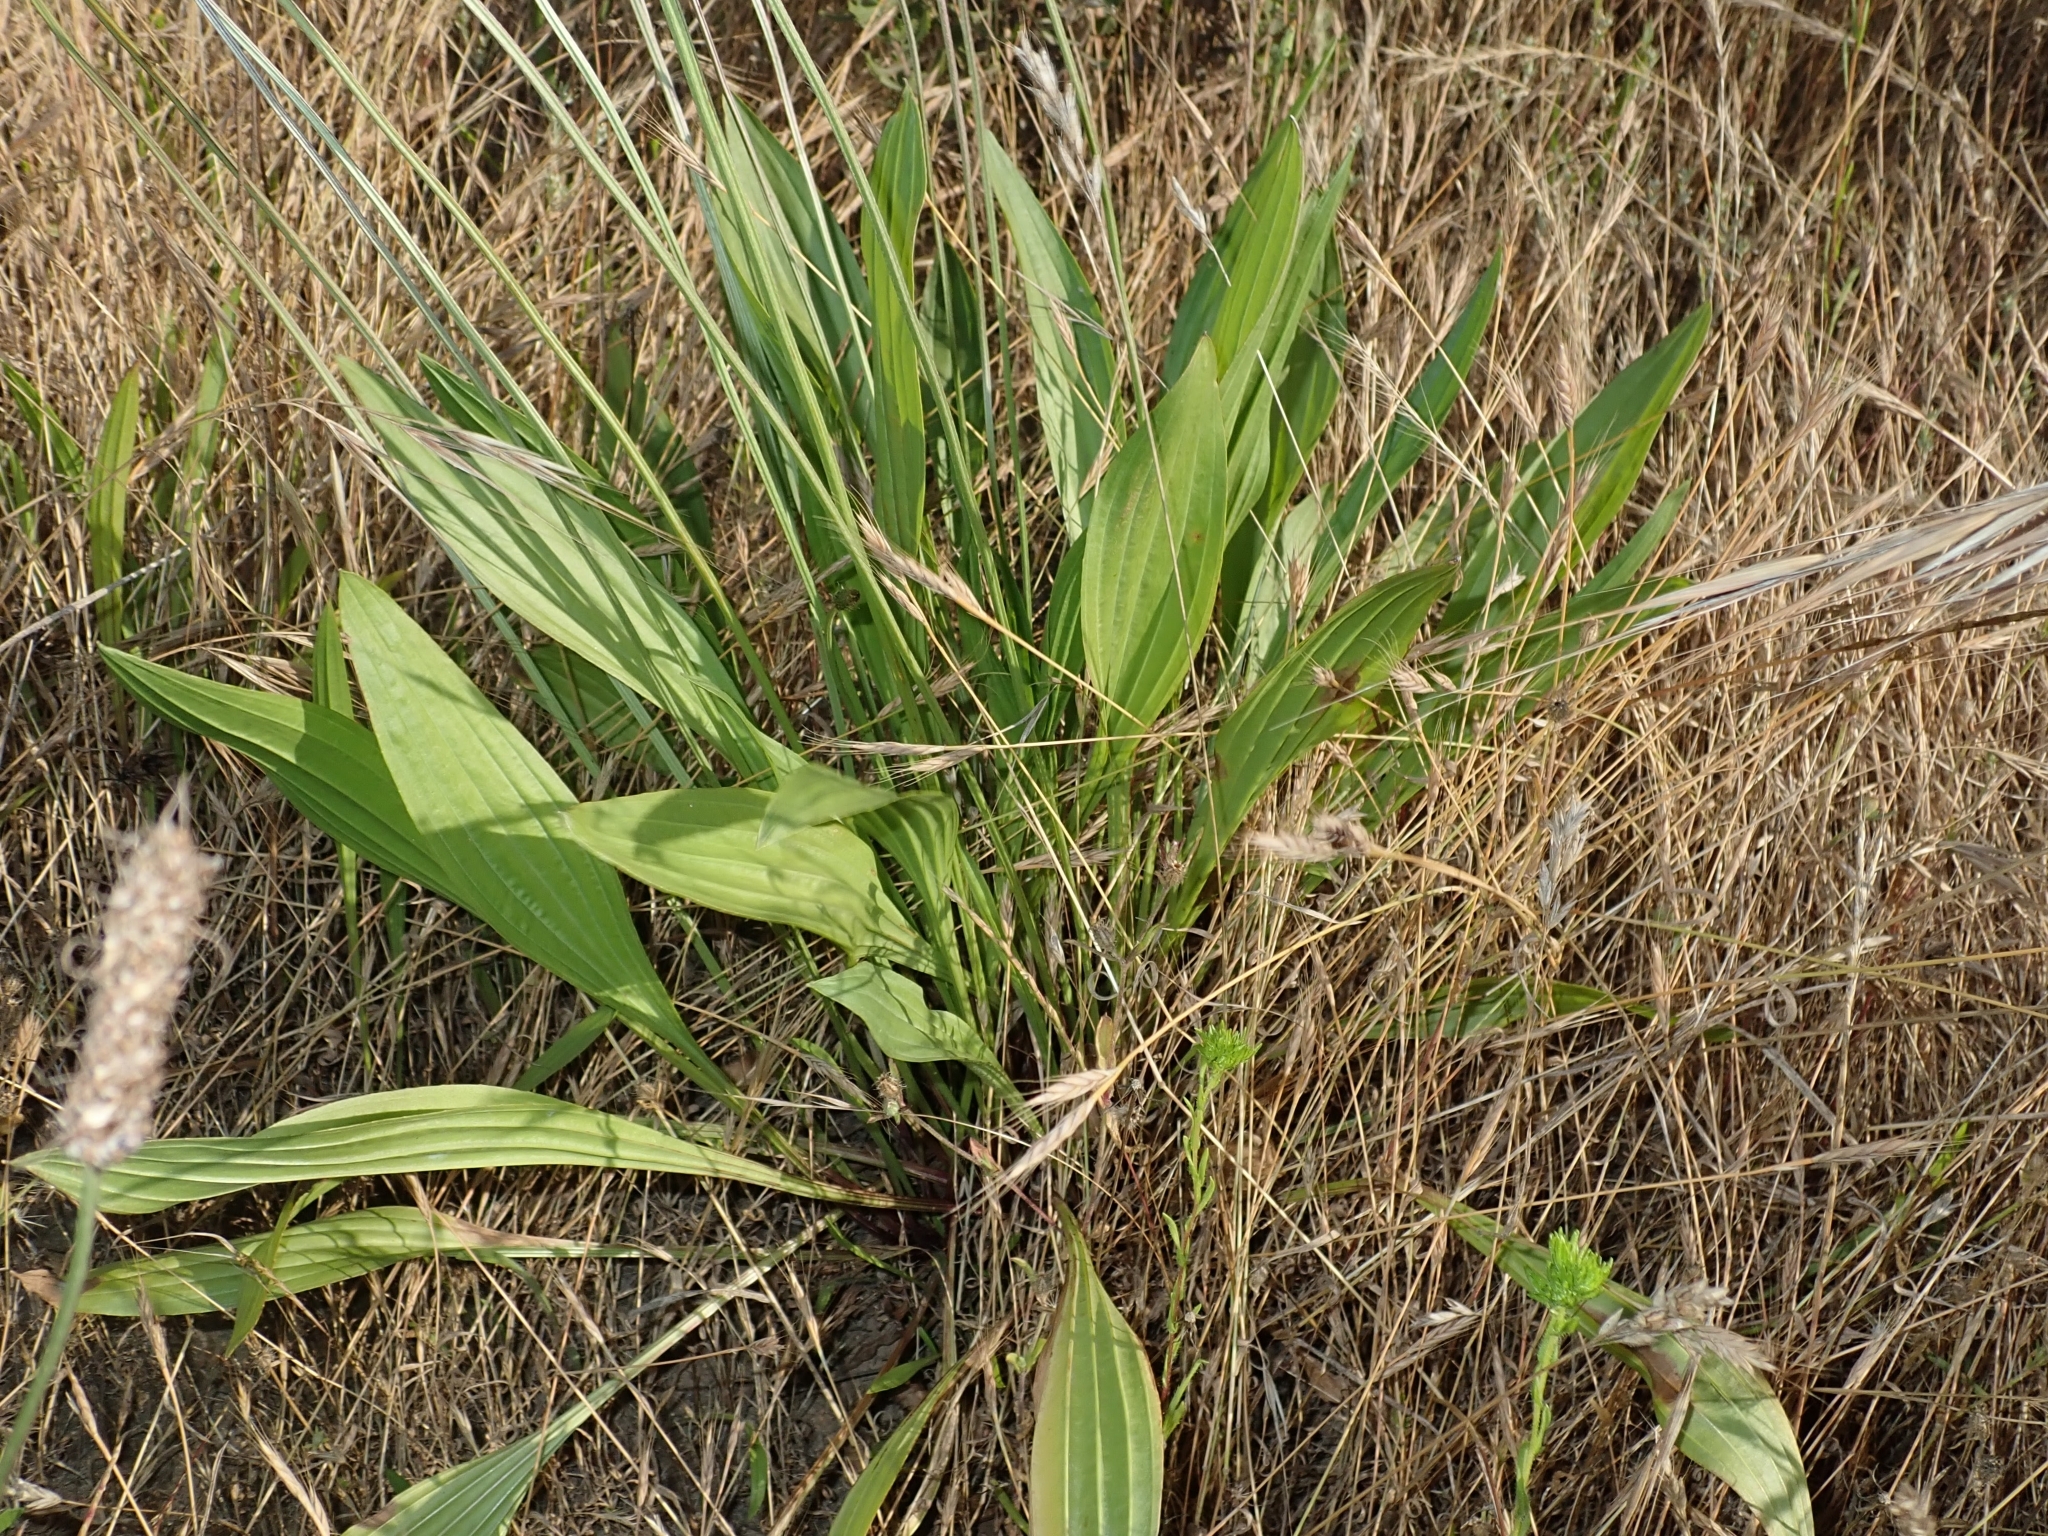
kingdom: Plantae
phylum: Tracheophyta
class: Magnoliopsida
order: Lamiales
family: Plantaginaceae
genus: Plantago
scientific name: Plantago lanceolata
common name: Ribwort plantain
